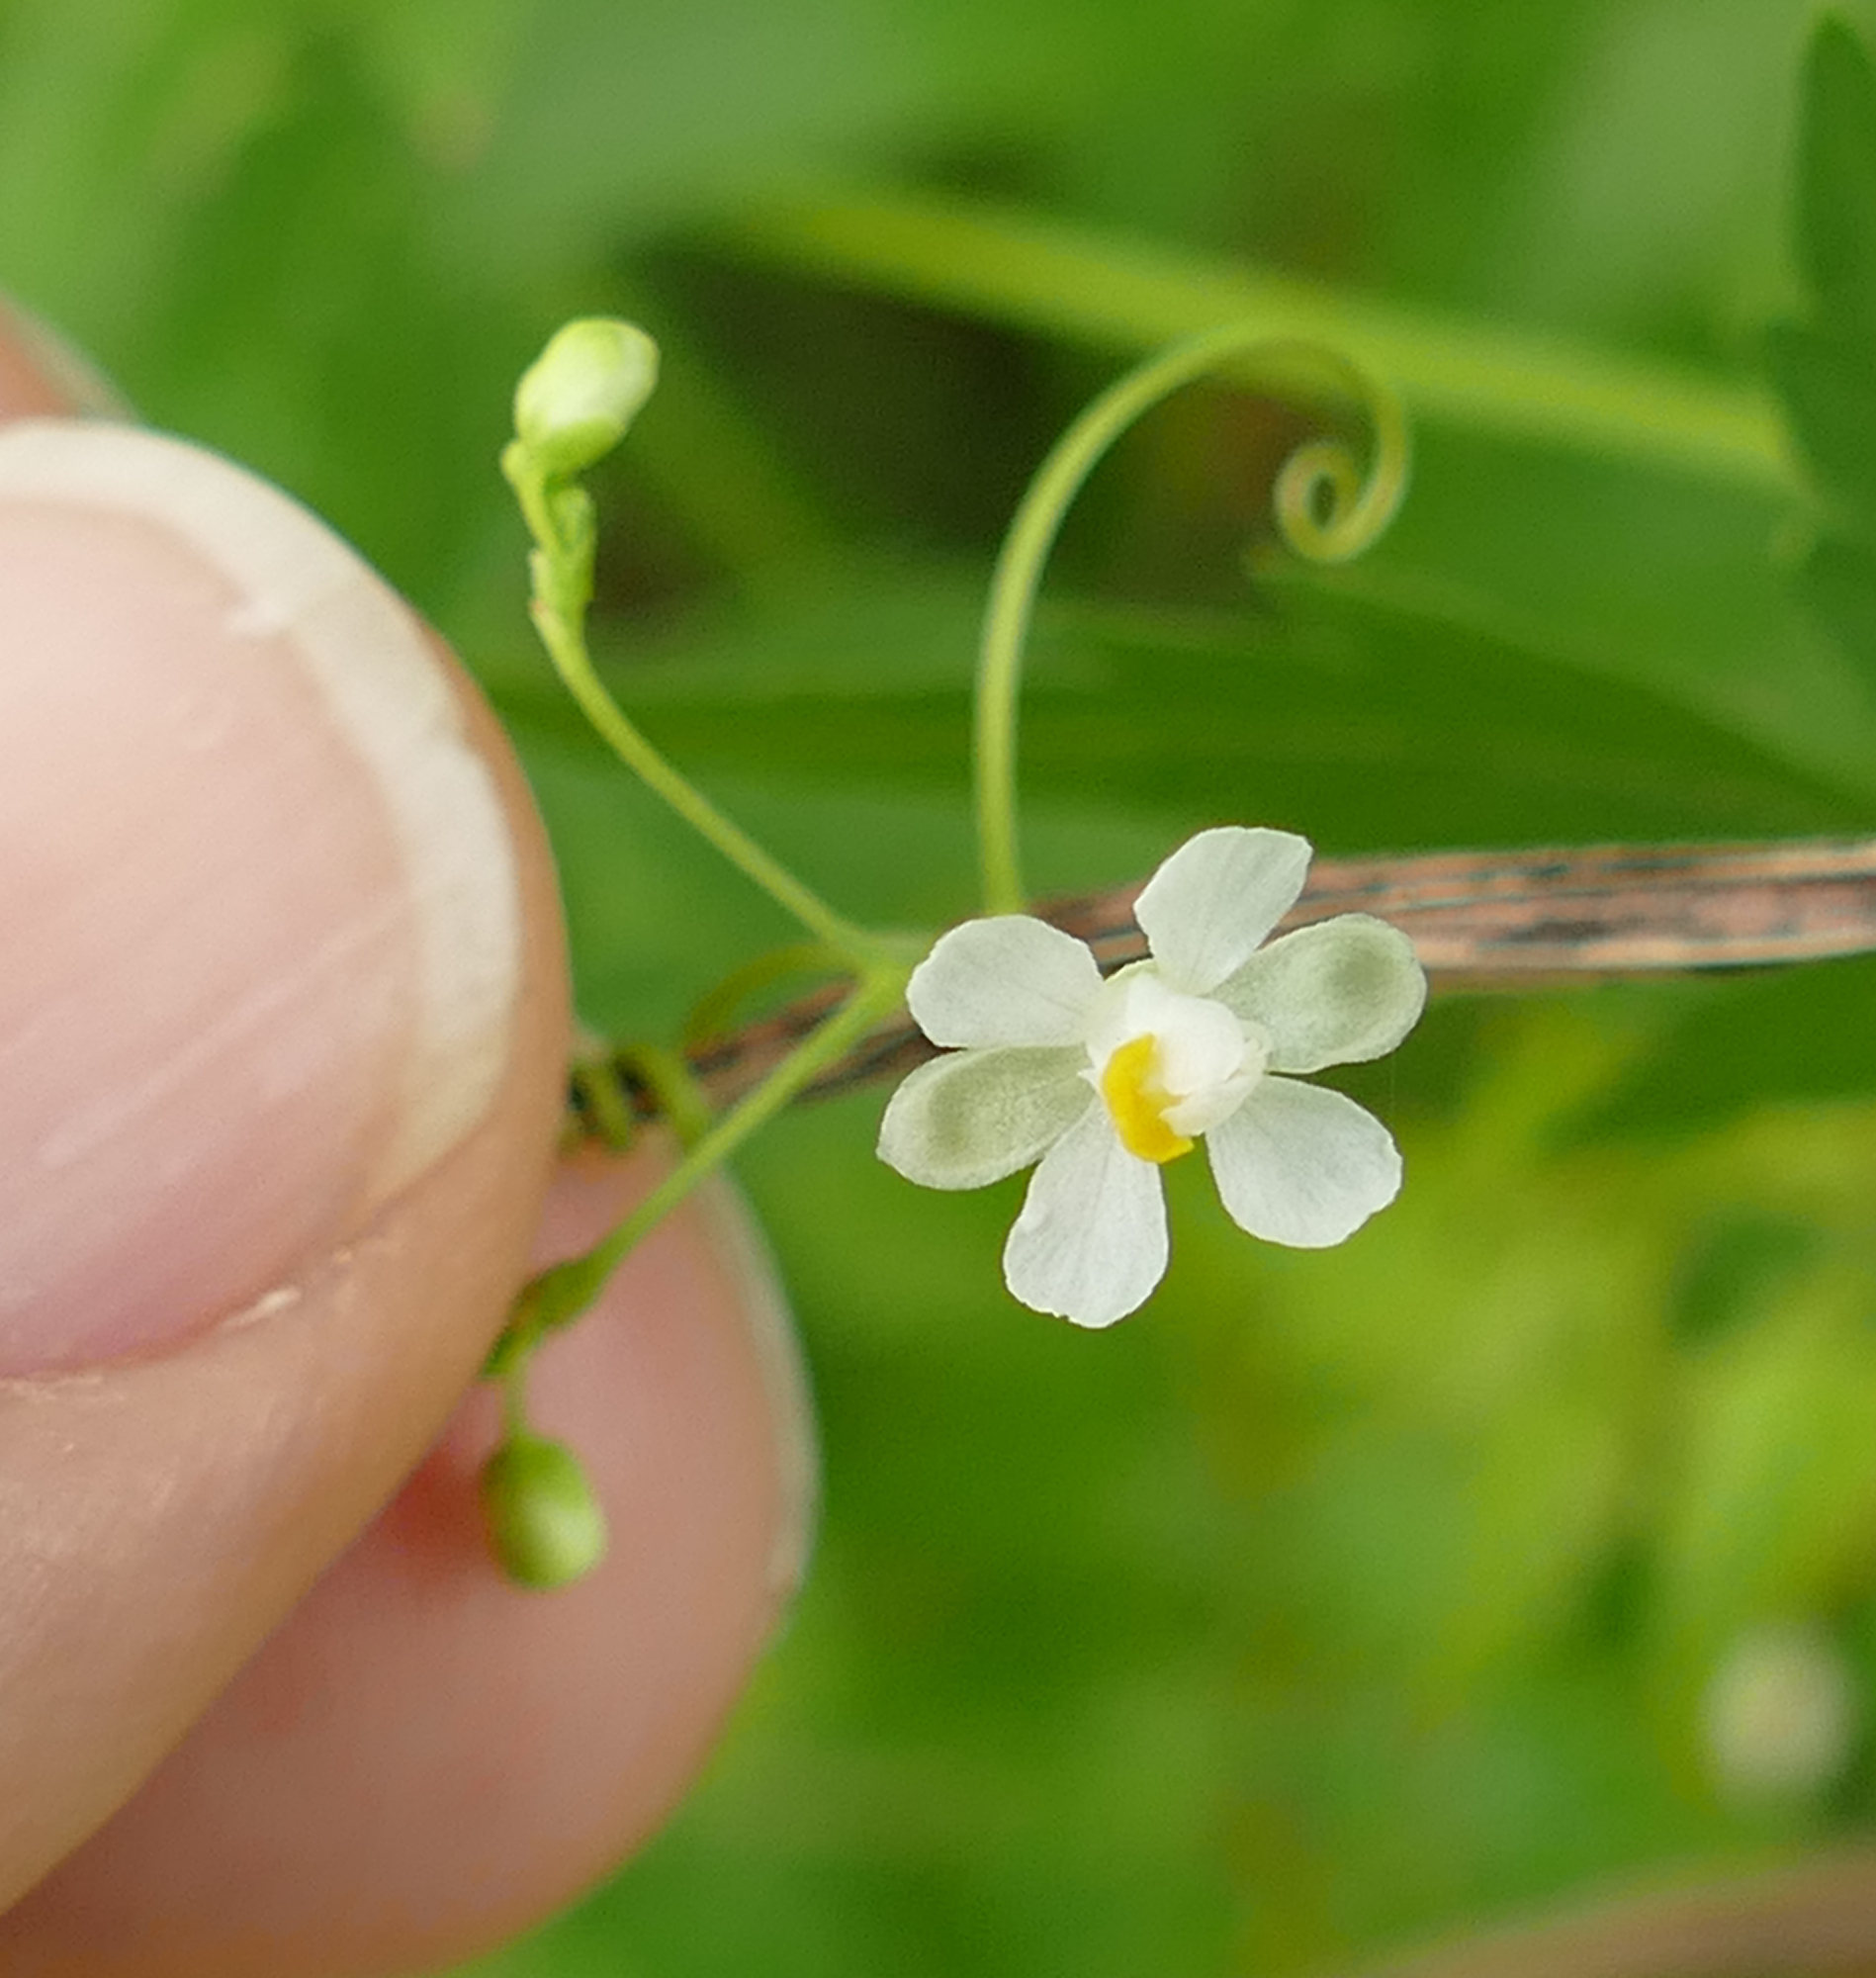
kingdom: Plantae
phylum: Tracheophyta
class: Magnoliopsida
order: Sapindales
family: Sapindaceae
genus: Cardiospermum
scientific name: Cardiospermum halicacabum
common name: Balloon vine
